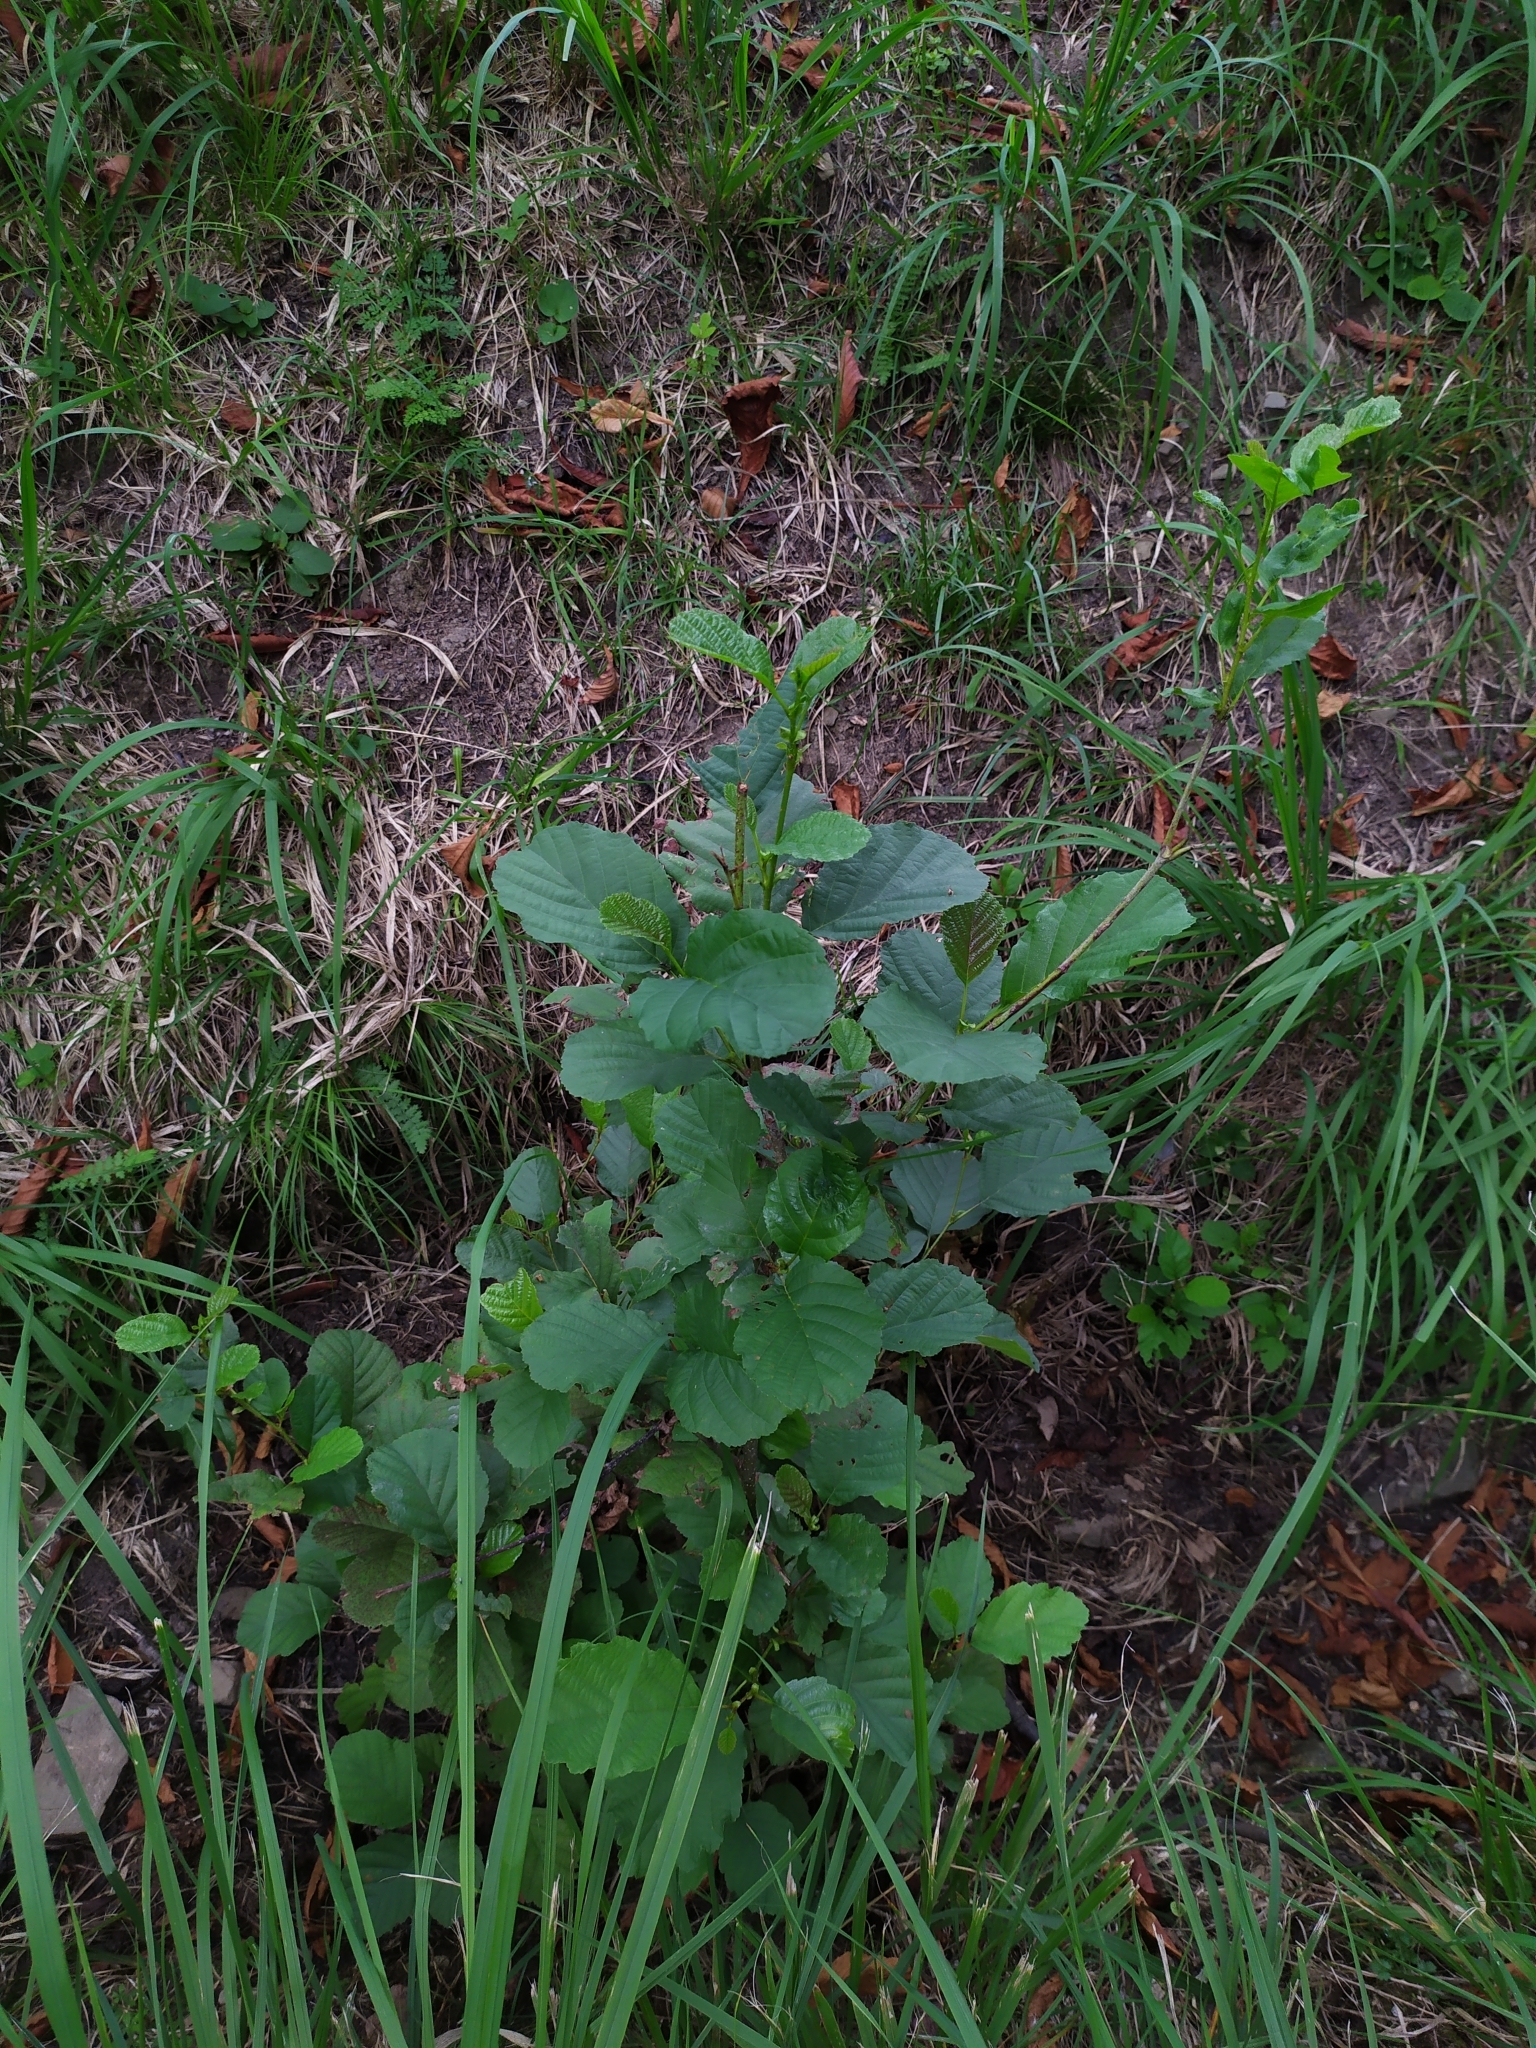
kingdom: Plantae
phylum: Tracheophyta
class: Magnoliopsida
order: Fagales
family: Betulaceae
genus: Alnus
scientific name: Alnus glutinosa
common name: Black alder
